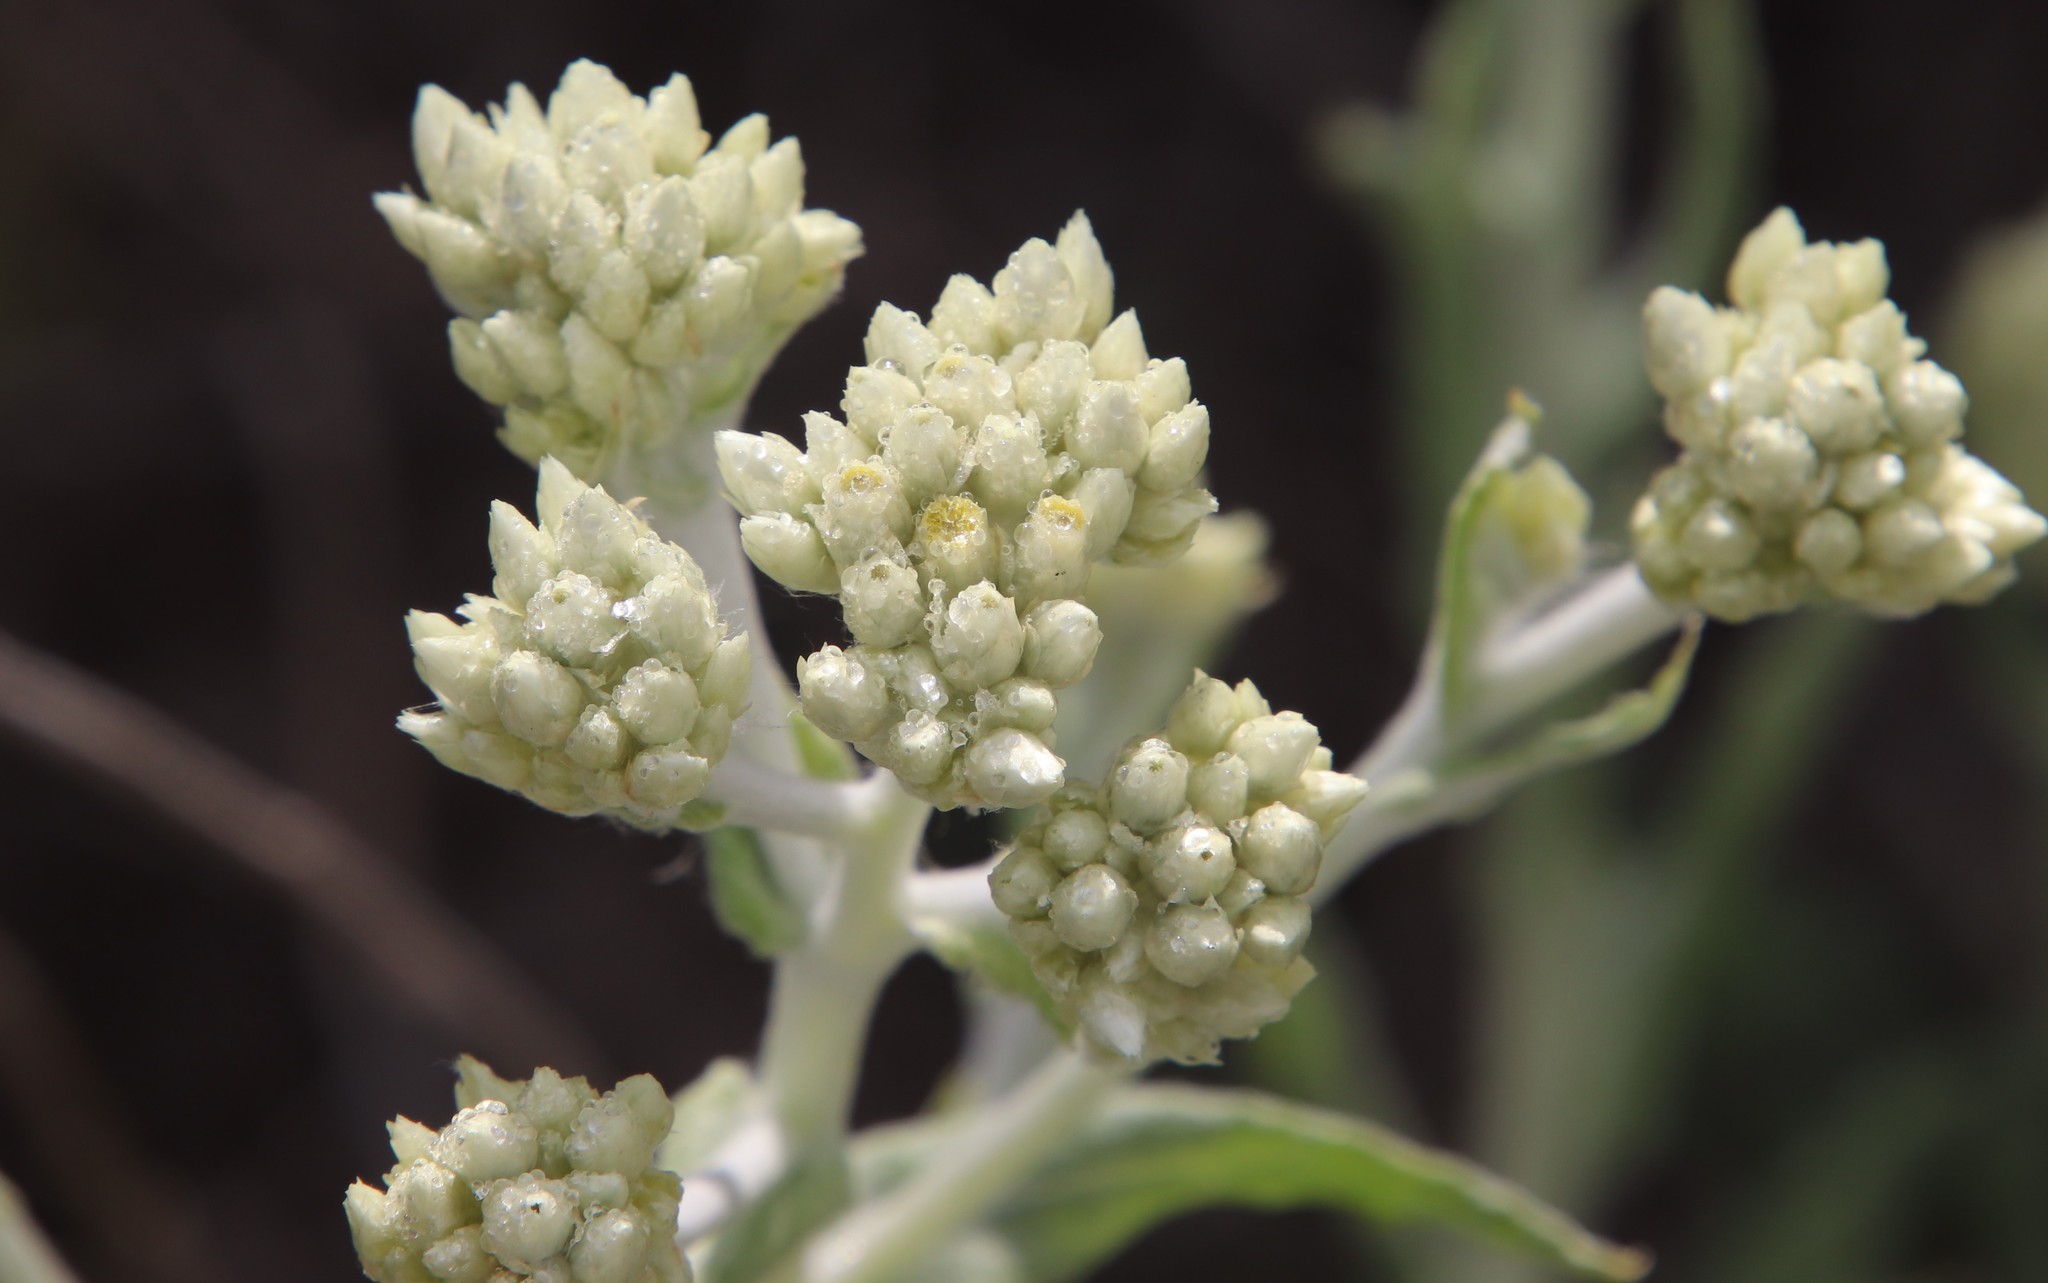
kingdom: Plantae
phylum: Tracheophyta
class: Magnoliopsida
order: Asterales
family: Asteraceae
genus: Pseudognaphalium
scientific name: Pseudognaphalium biolettii
